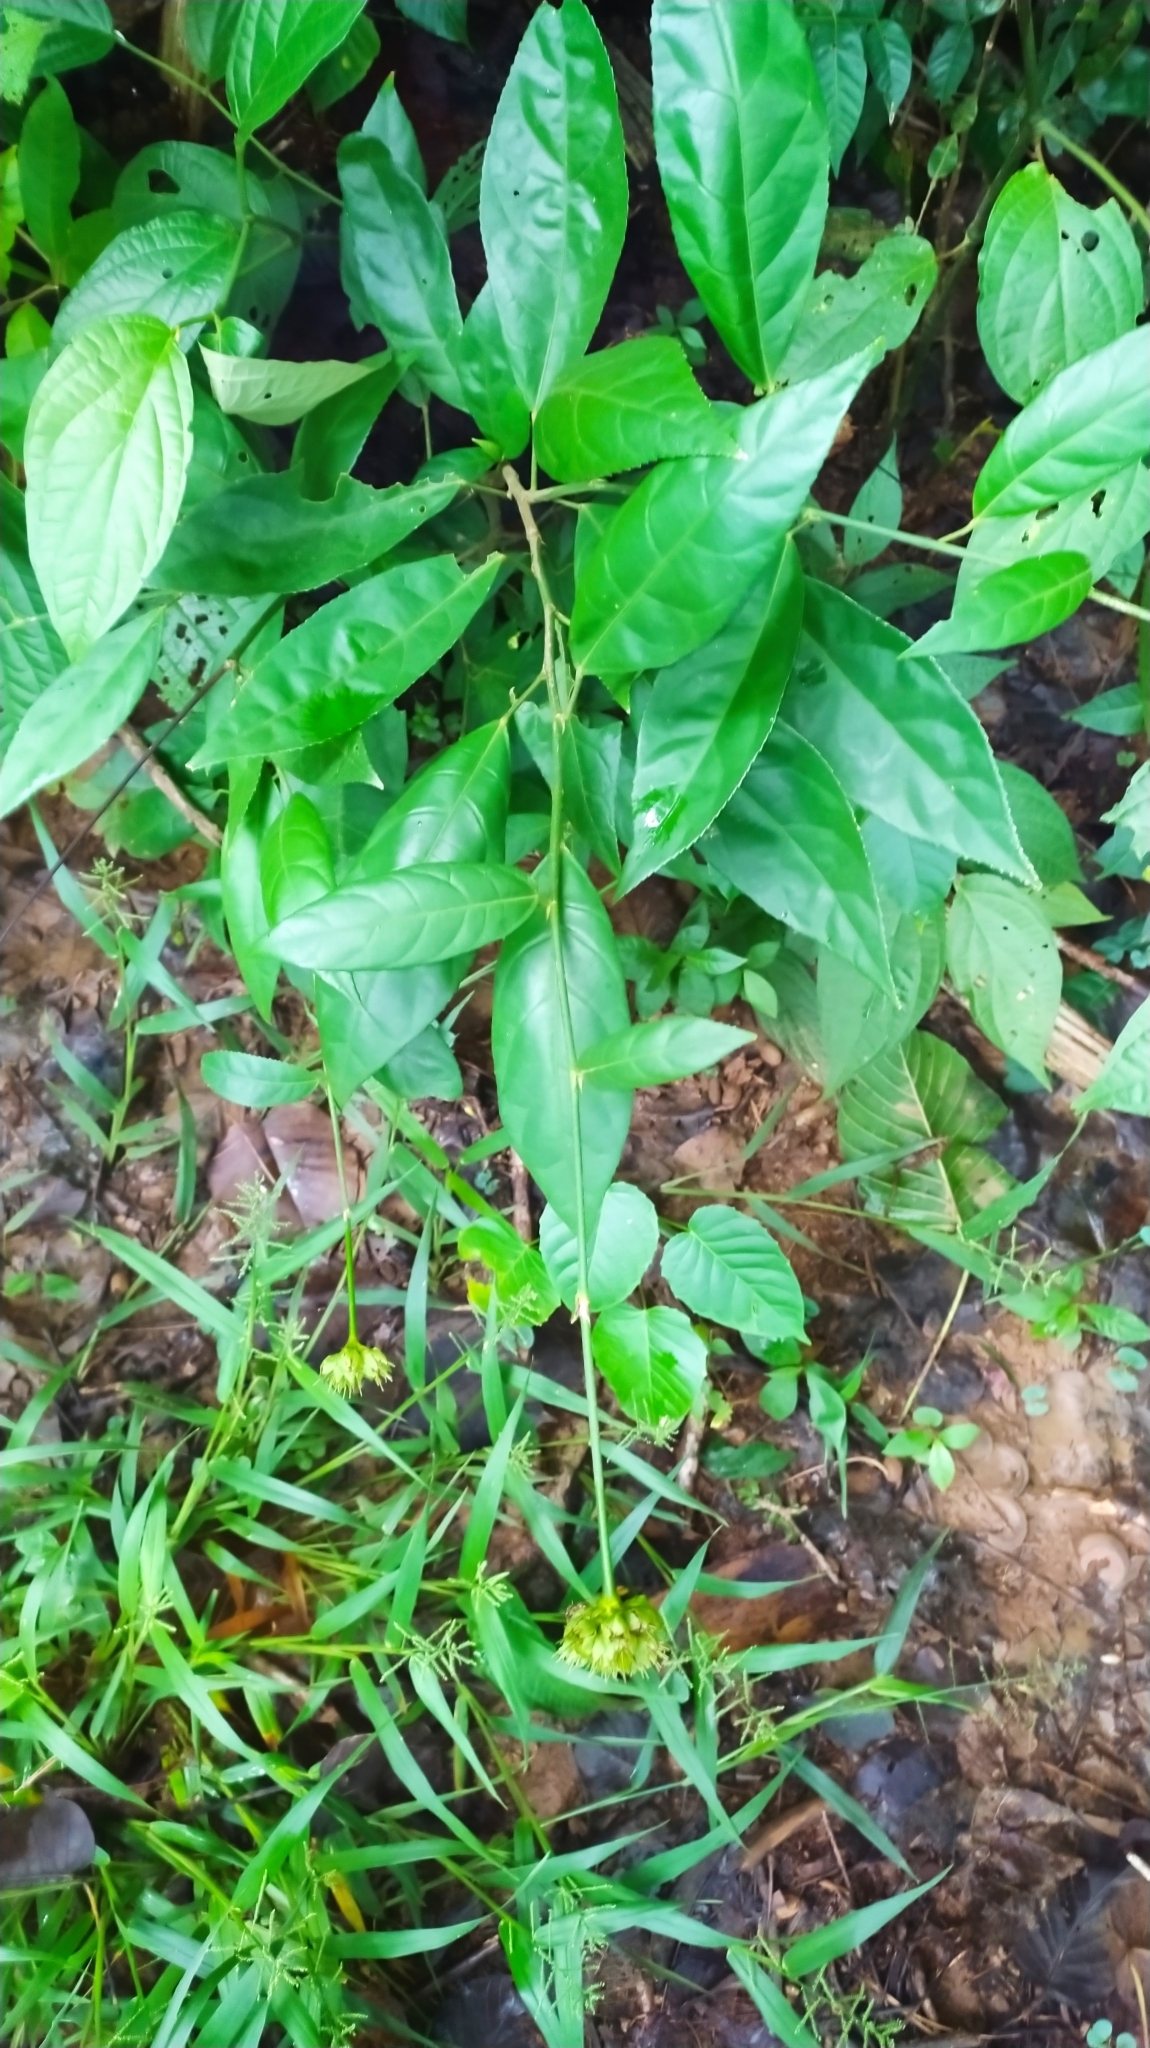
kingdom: Plantae
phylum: Tracheophyta
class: Magnoliopsida
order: Malvales
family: Malvaceae
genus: Pavonia
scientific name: Pavonia fruticosa
